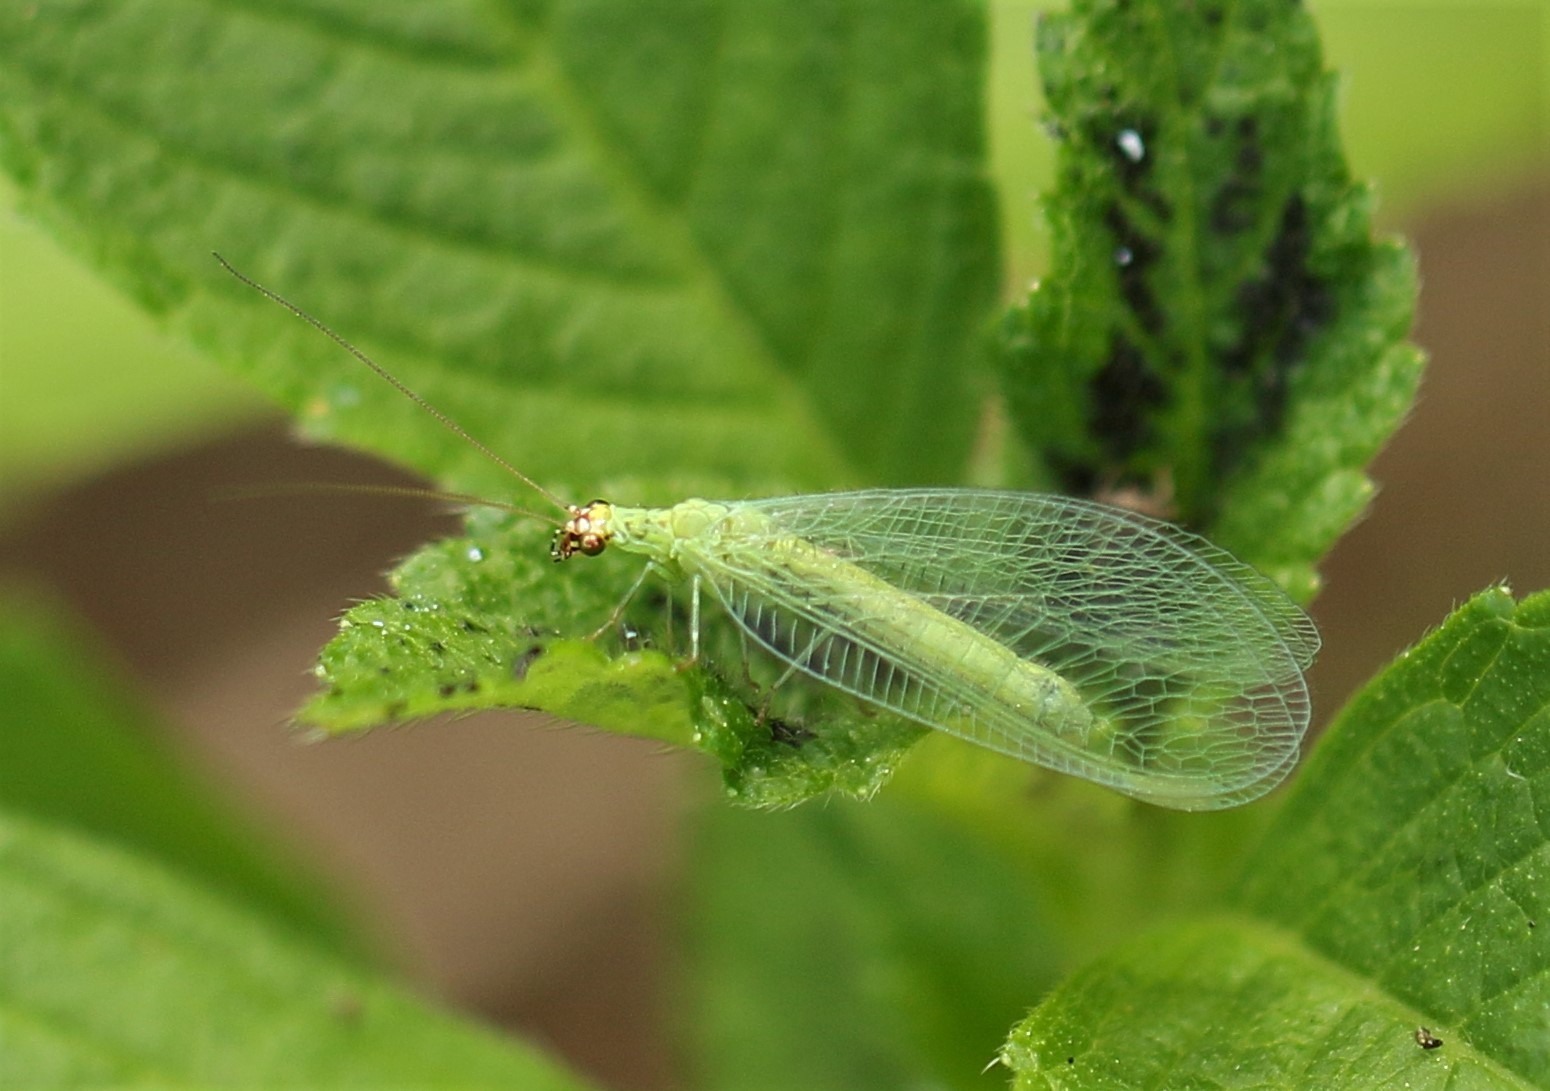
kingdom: Animalia
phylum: Arthropoda
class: Insecta
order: Neuroptera
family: Chrysopidae
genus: Chrysopa
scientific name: Chrysopa oculata
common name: Golden-eyed lacewing
